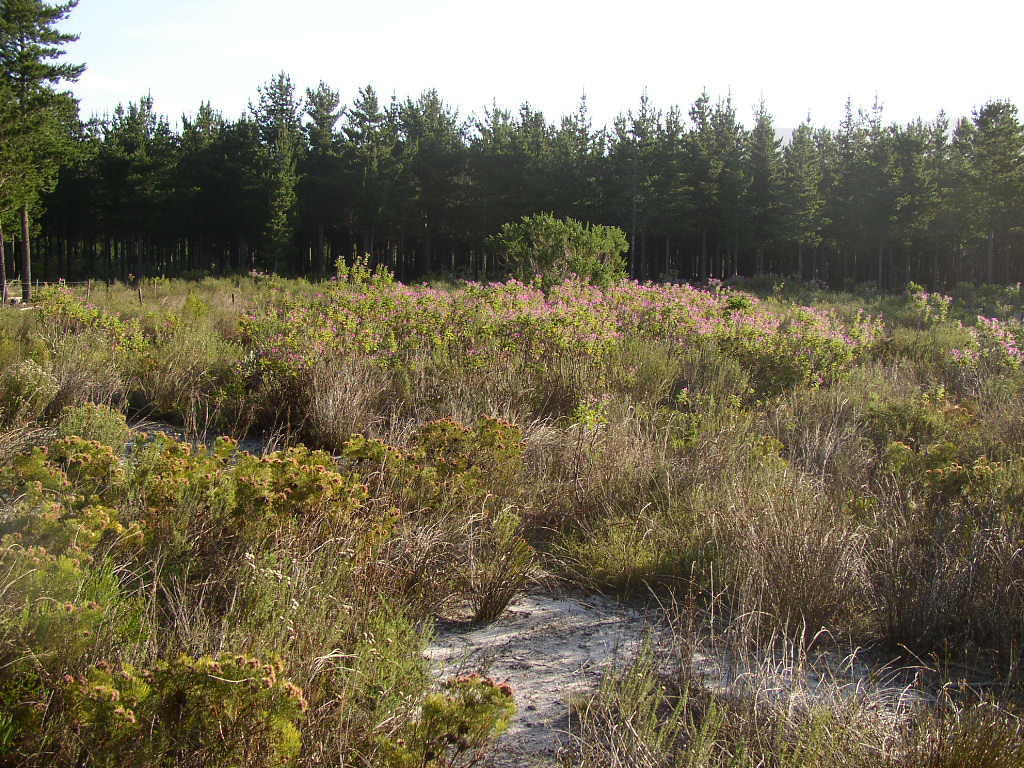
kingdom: Plantae
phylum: Tracheophyta
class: Magnoliopsida
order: Proteales
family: Proteaceae
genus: Serruria
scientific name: Serruria glomerata
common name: Cluster spiderhead
